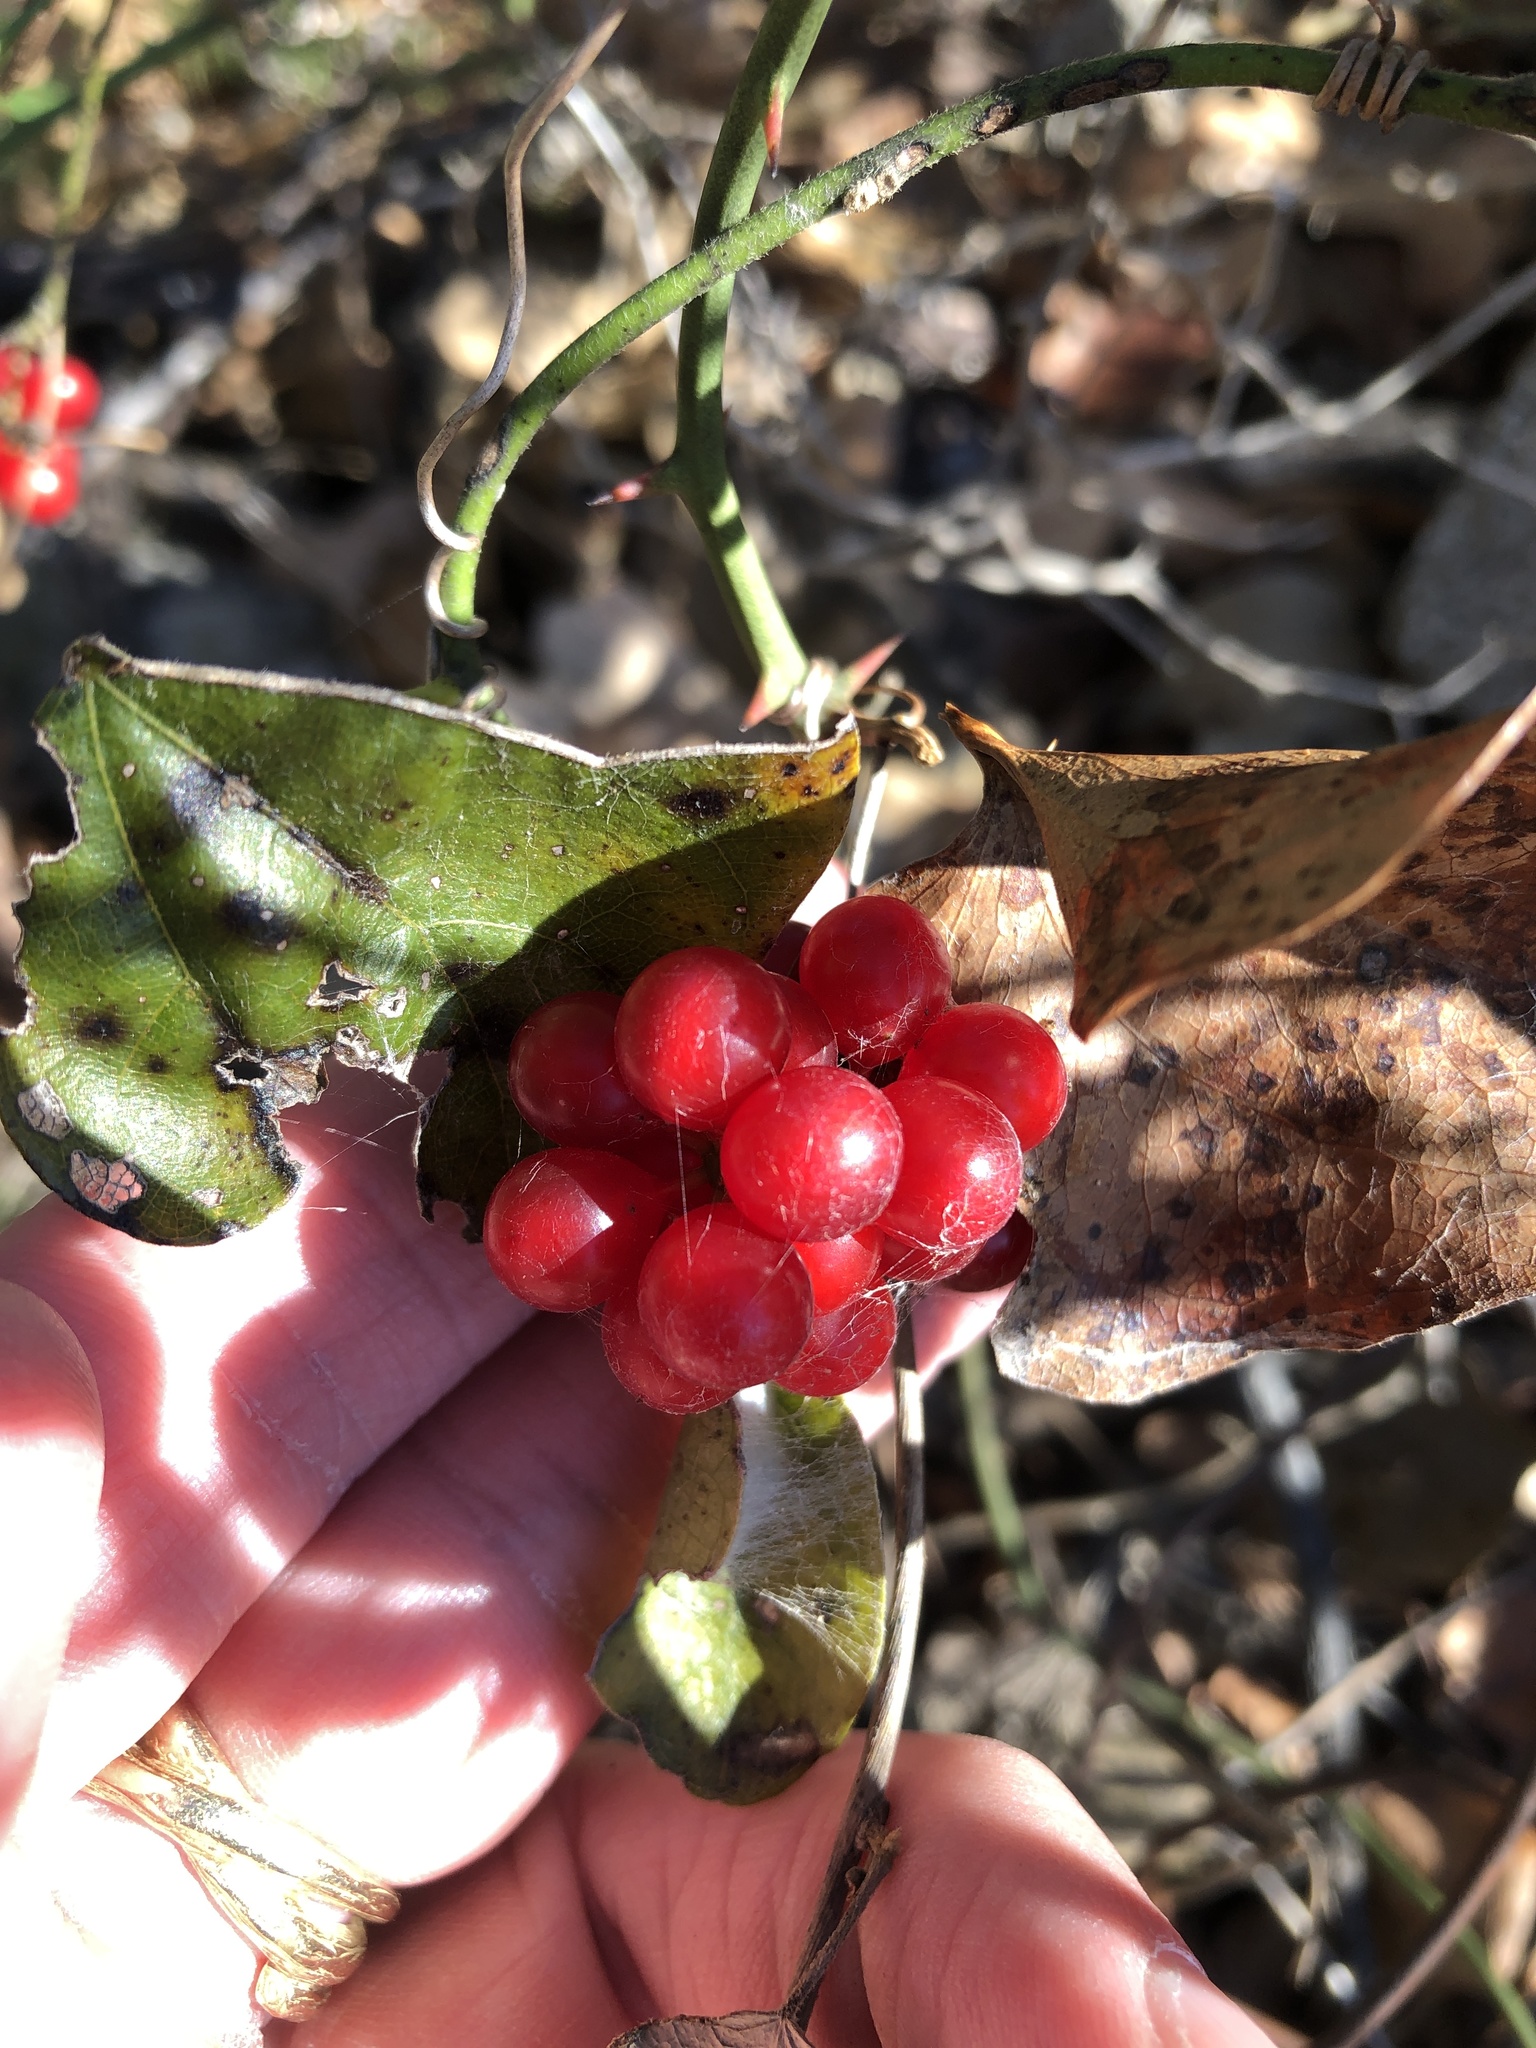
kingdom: Plantae
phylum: Tracheophyta
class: Magnoliopsida
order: Ranunculales
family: Menispermaceae
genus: Cocculus
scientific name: Cocculus carolinus
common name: Carolina moonseed
